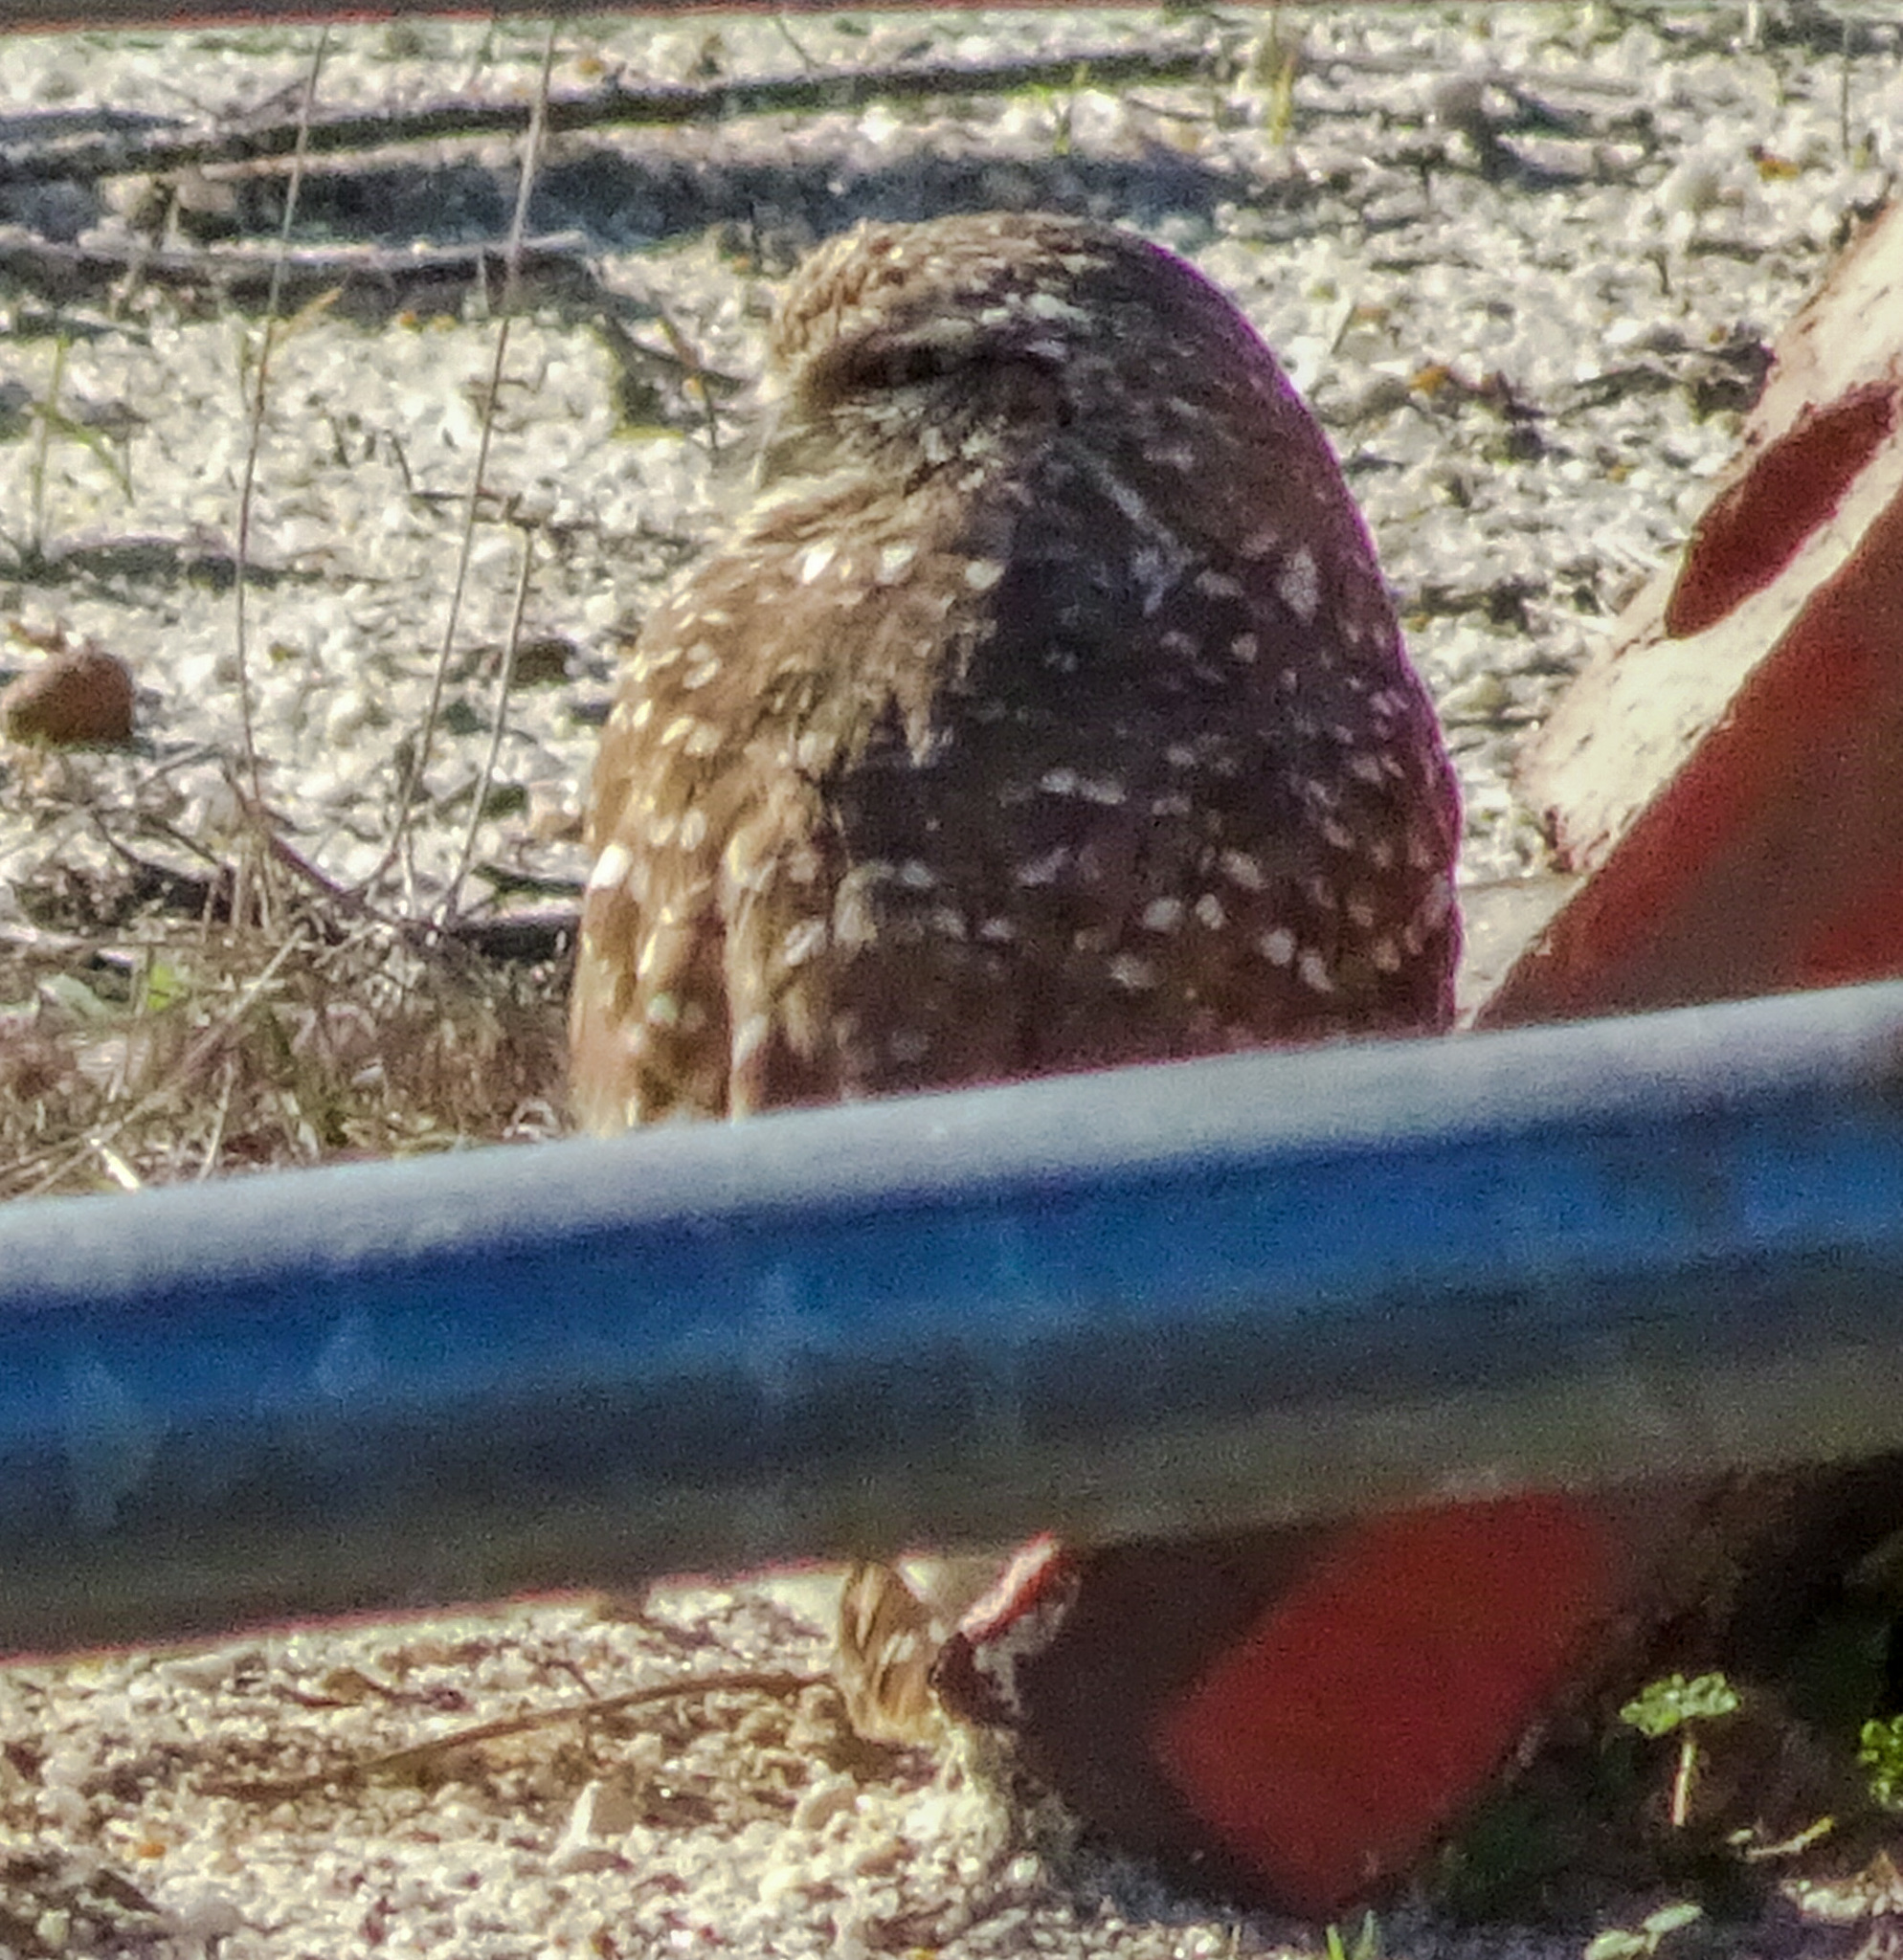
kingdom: Animalia
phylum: Chordata
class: Aves
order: Strigiformes
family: Strigidae
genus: Athene
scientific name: Athene cunicularia
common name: Burrowing owl
